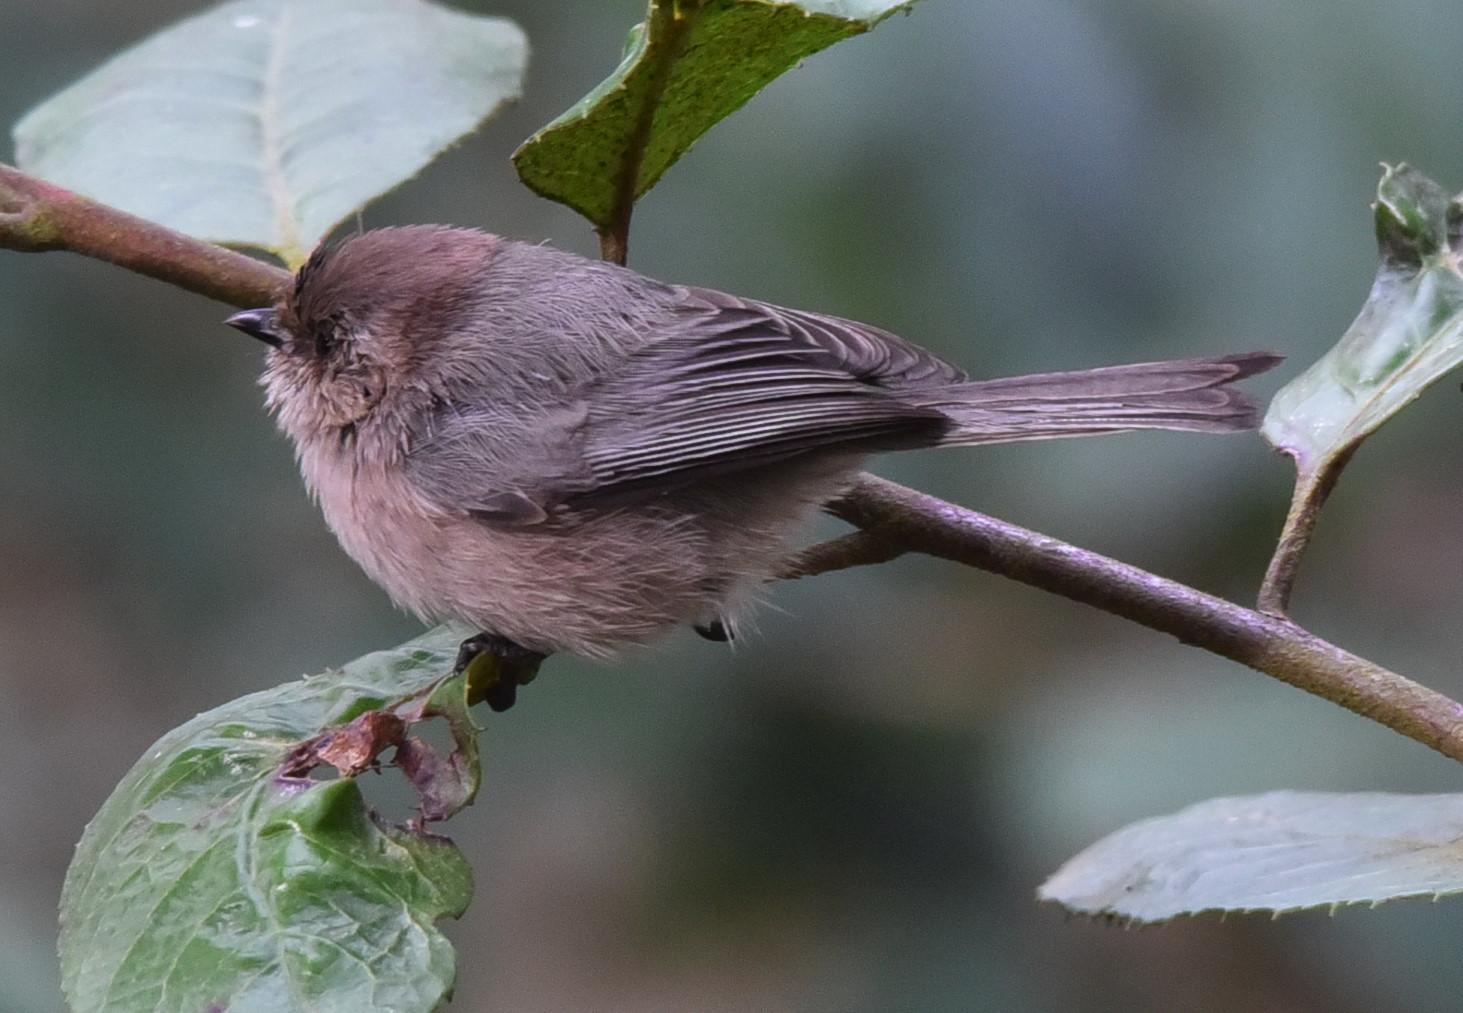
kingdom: Animalia
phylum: Chordata
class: Aves
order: Passeriformes
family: Aegithalidae
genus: Psaltriparus
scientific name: Psaltriparus minimus
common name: American bushtit
